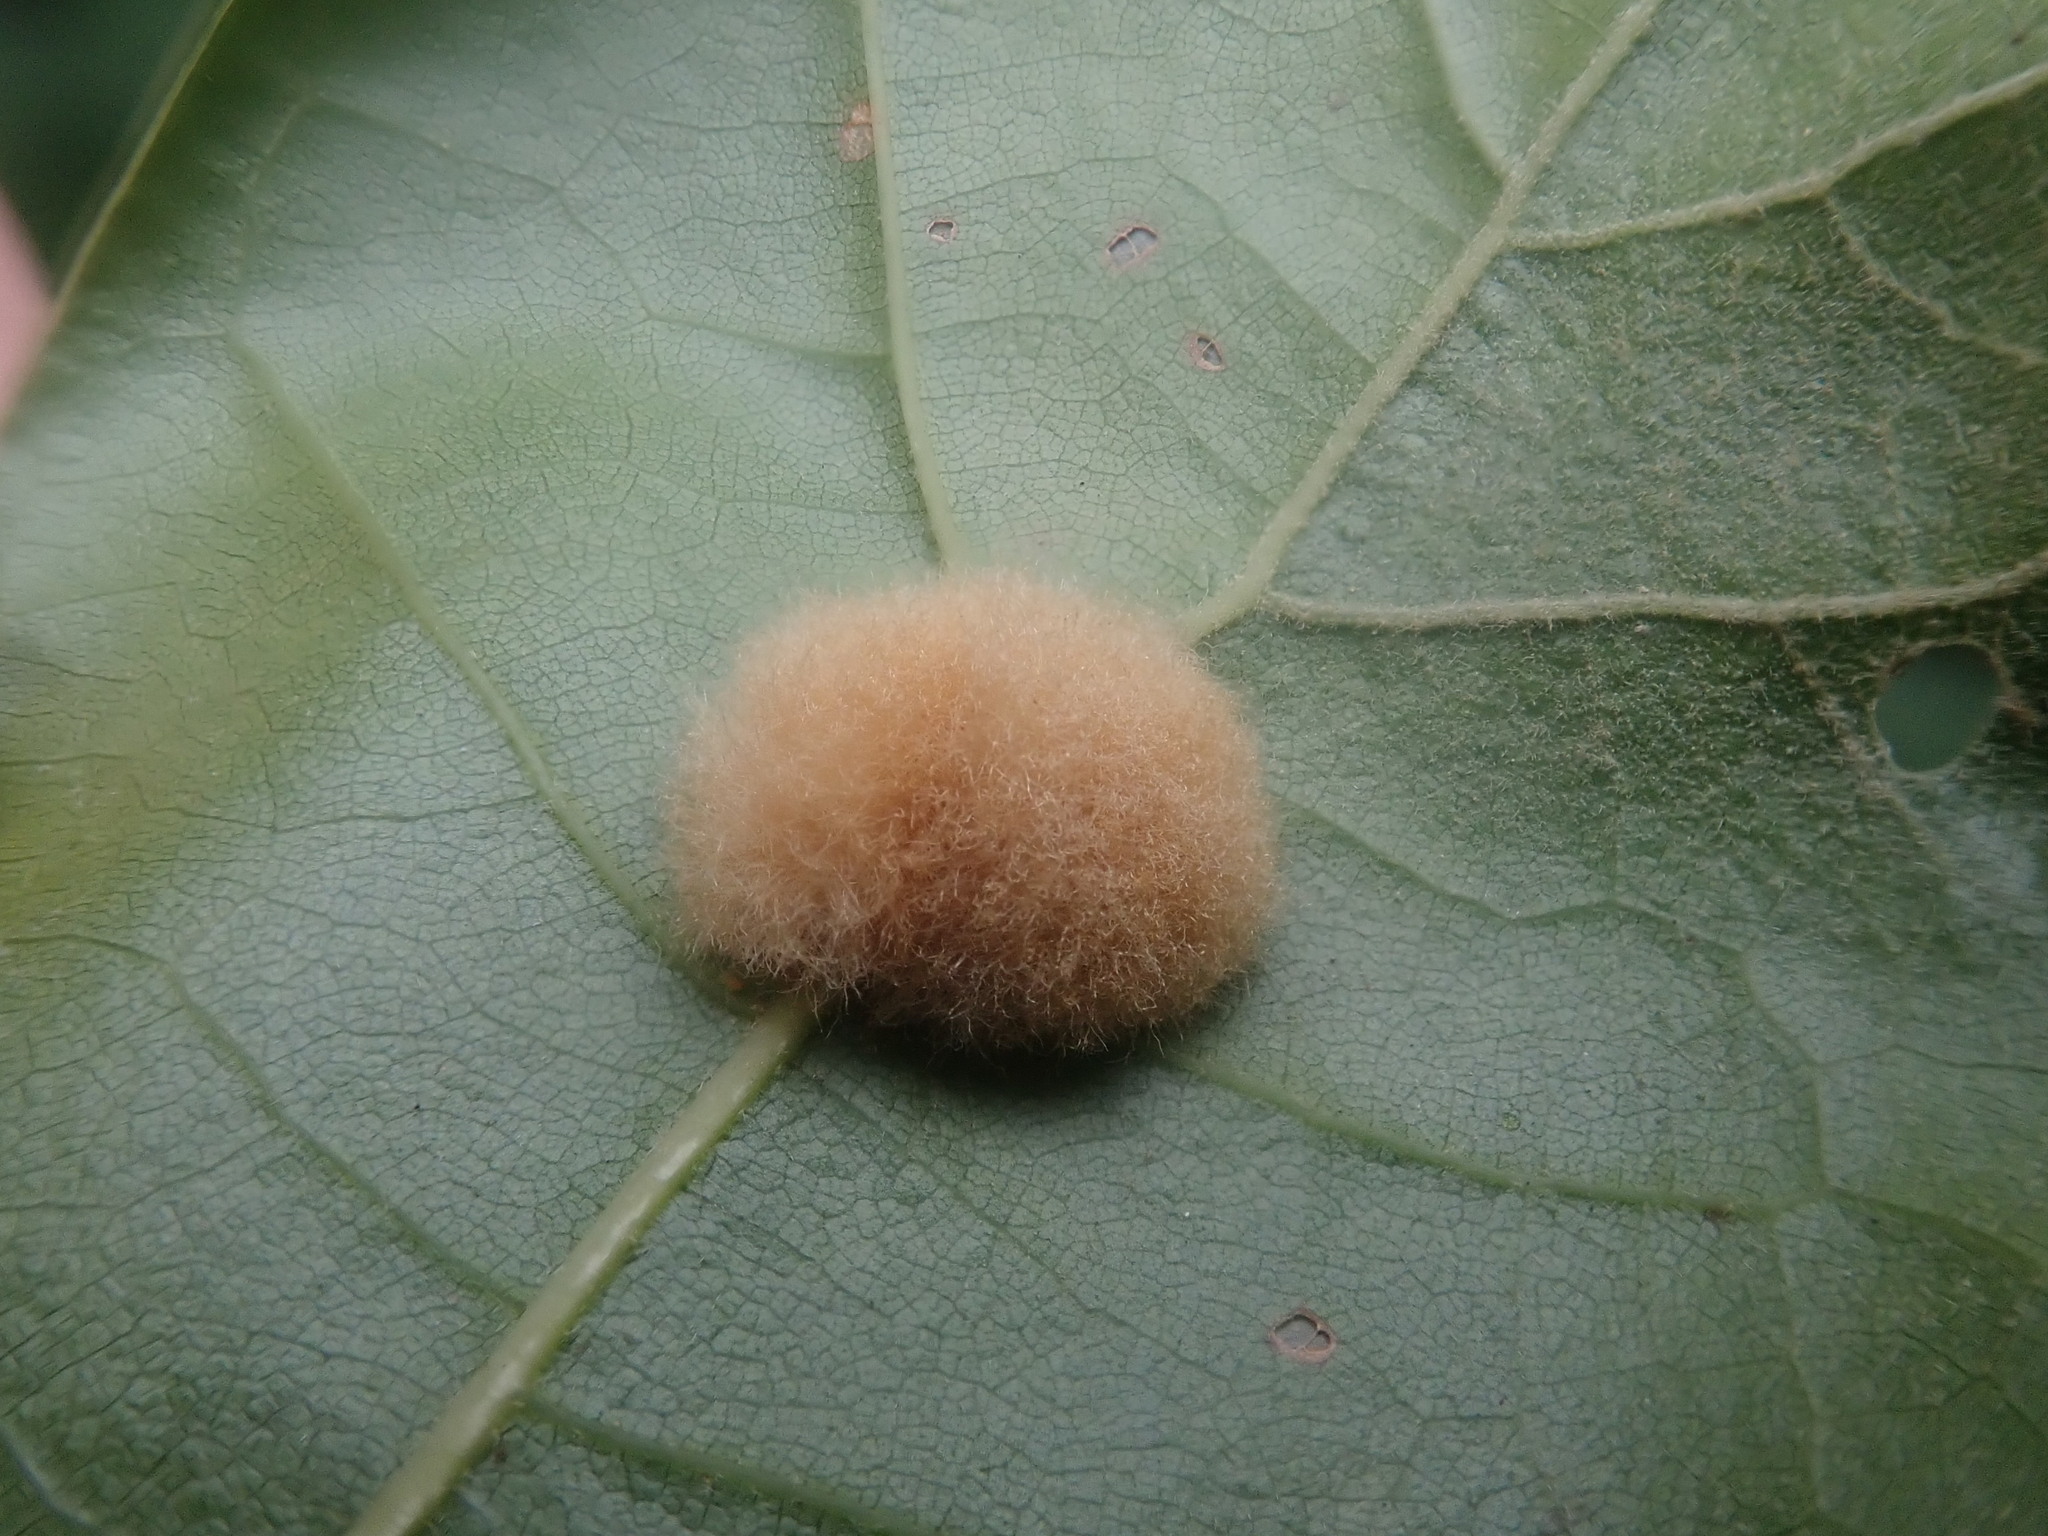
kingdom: Animalia
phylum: Arthropoda
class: Insecta
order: Hymenoptera
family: Cynipidae
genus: Callirhytis
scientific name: Callirhytis
